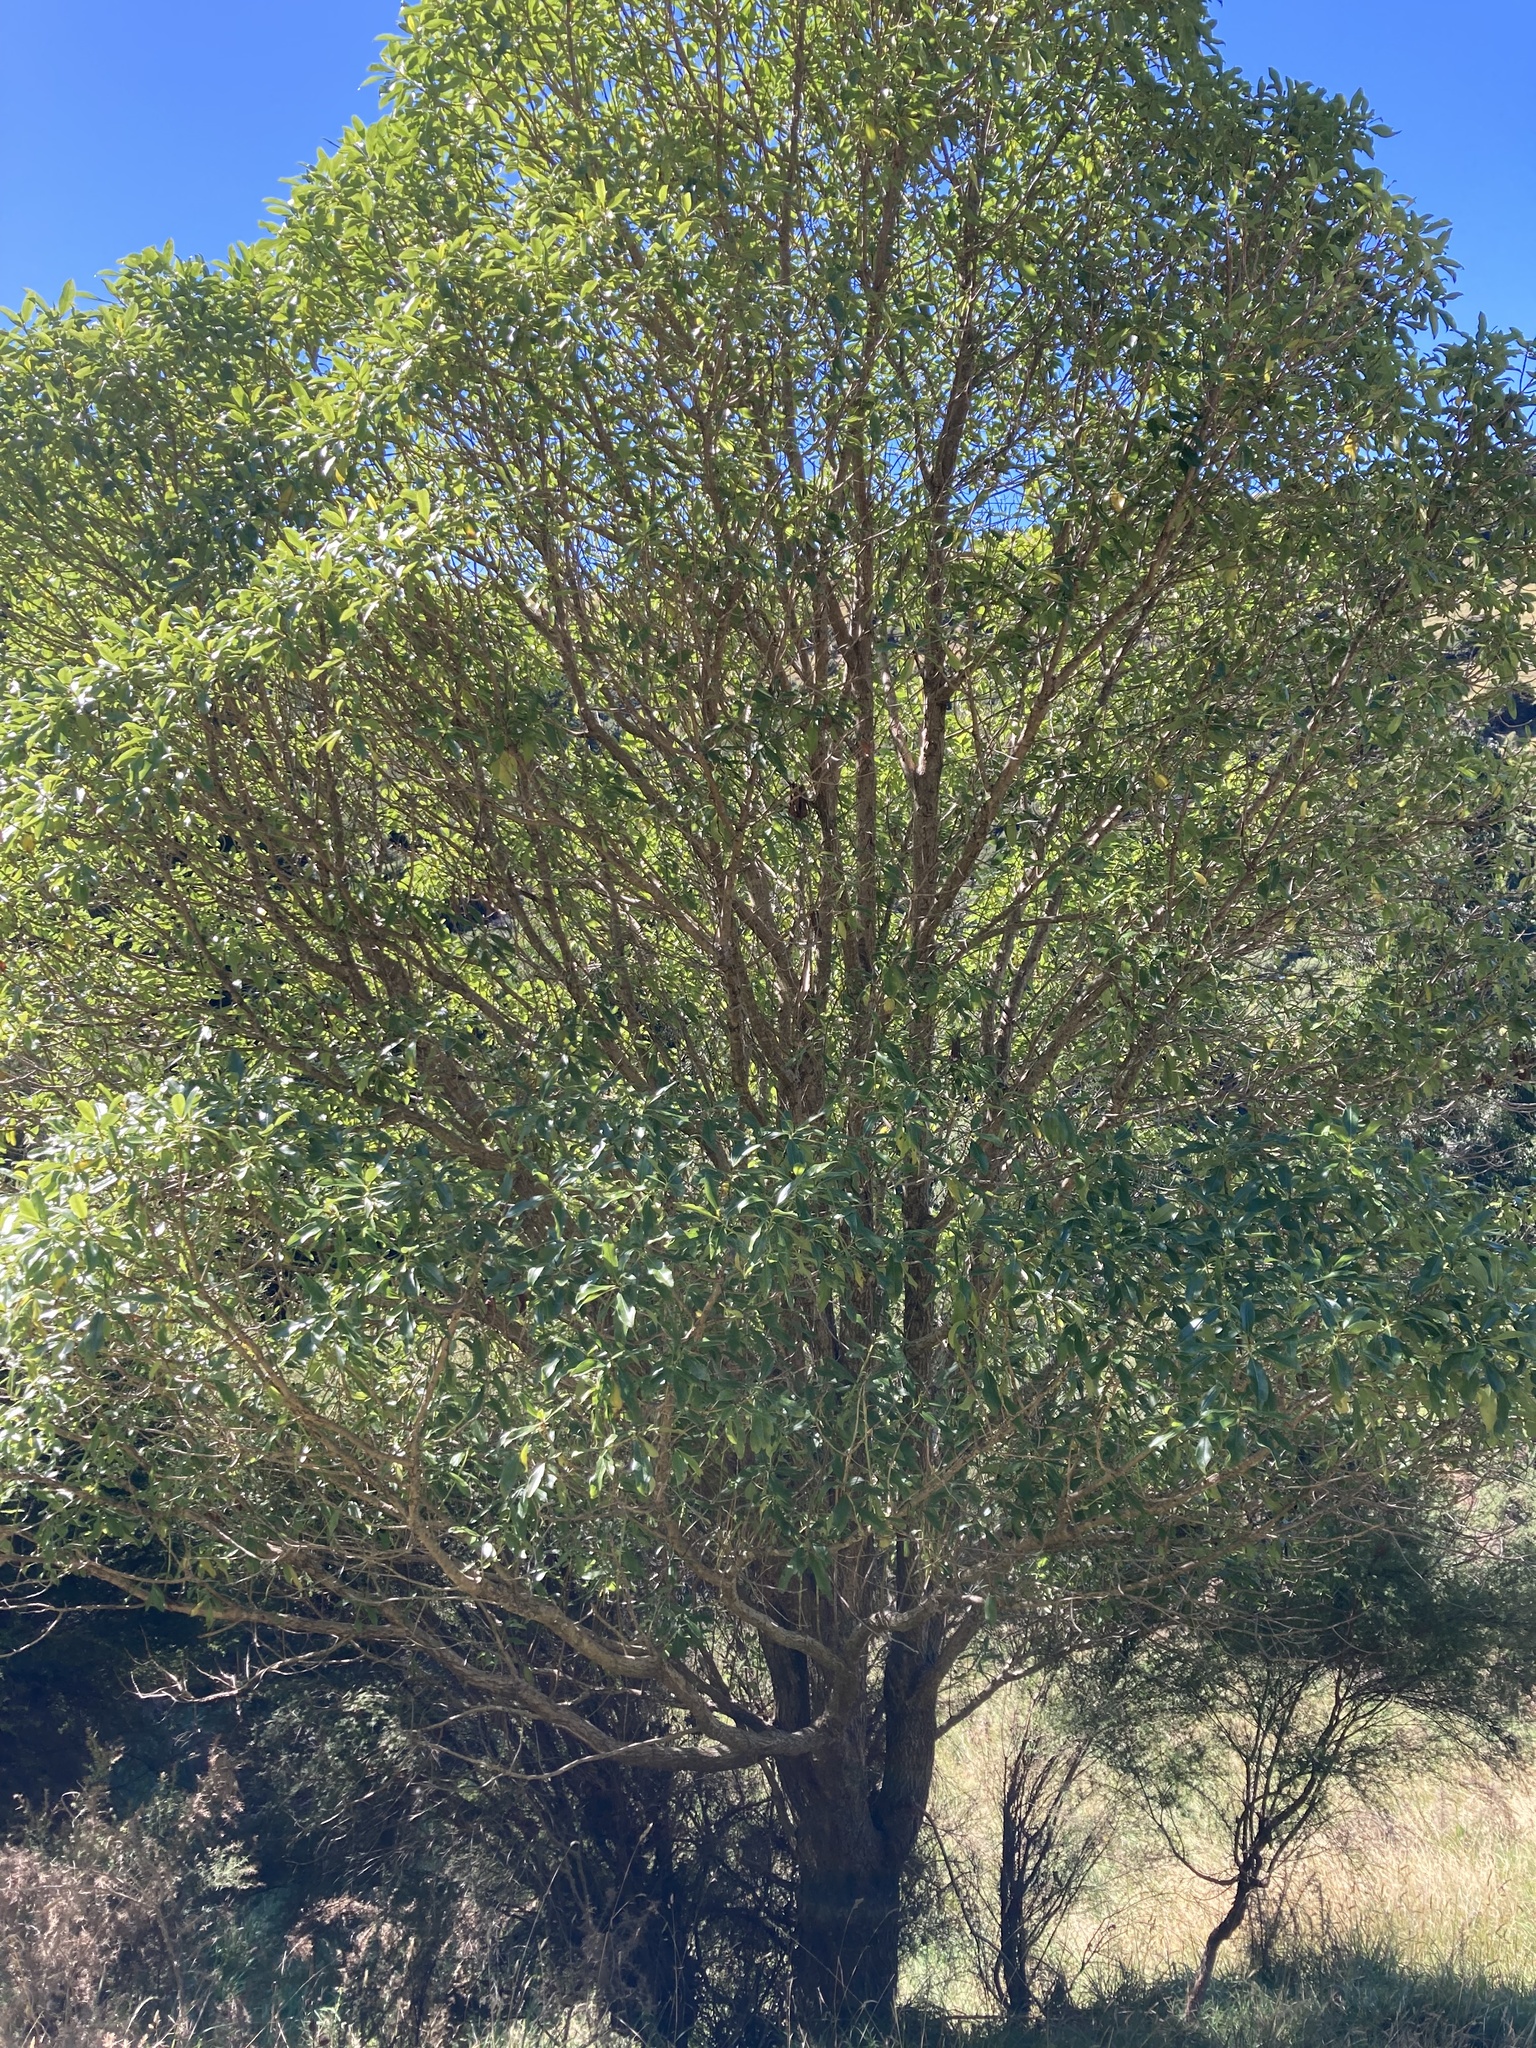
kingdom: Plantae
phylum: Tracheophyta
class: Magnoliopsida
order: Lamiales
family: Scrophulariaceae
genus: Myoporum
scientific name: Myoporum laetum
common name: Ngaio tree
